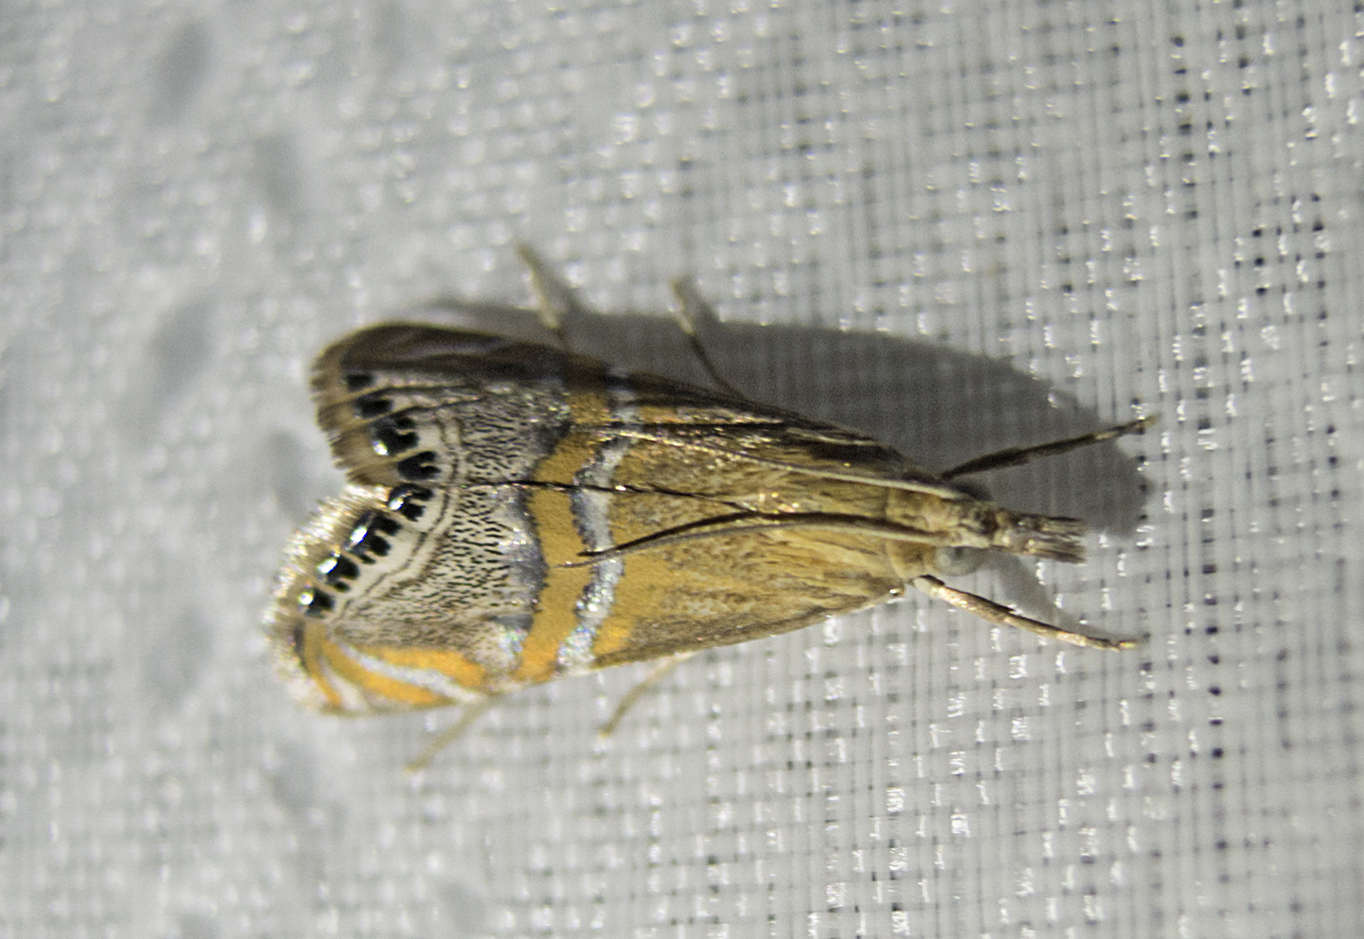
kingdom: Animalia
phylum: Arthropoda
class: Insecta
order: Lepidoptera
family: Crambidae
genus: Euchromius
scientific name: Euchromius bella
